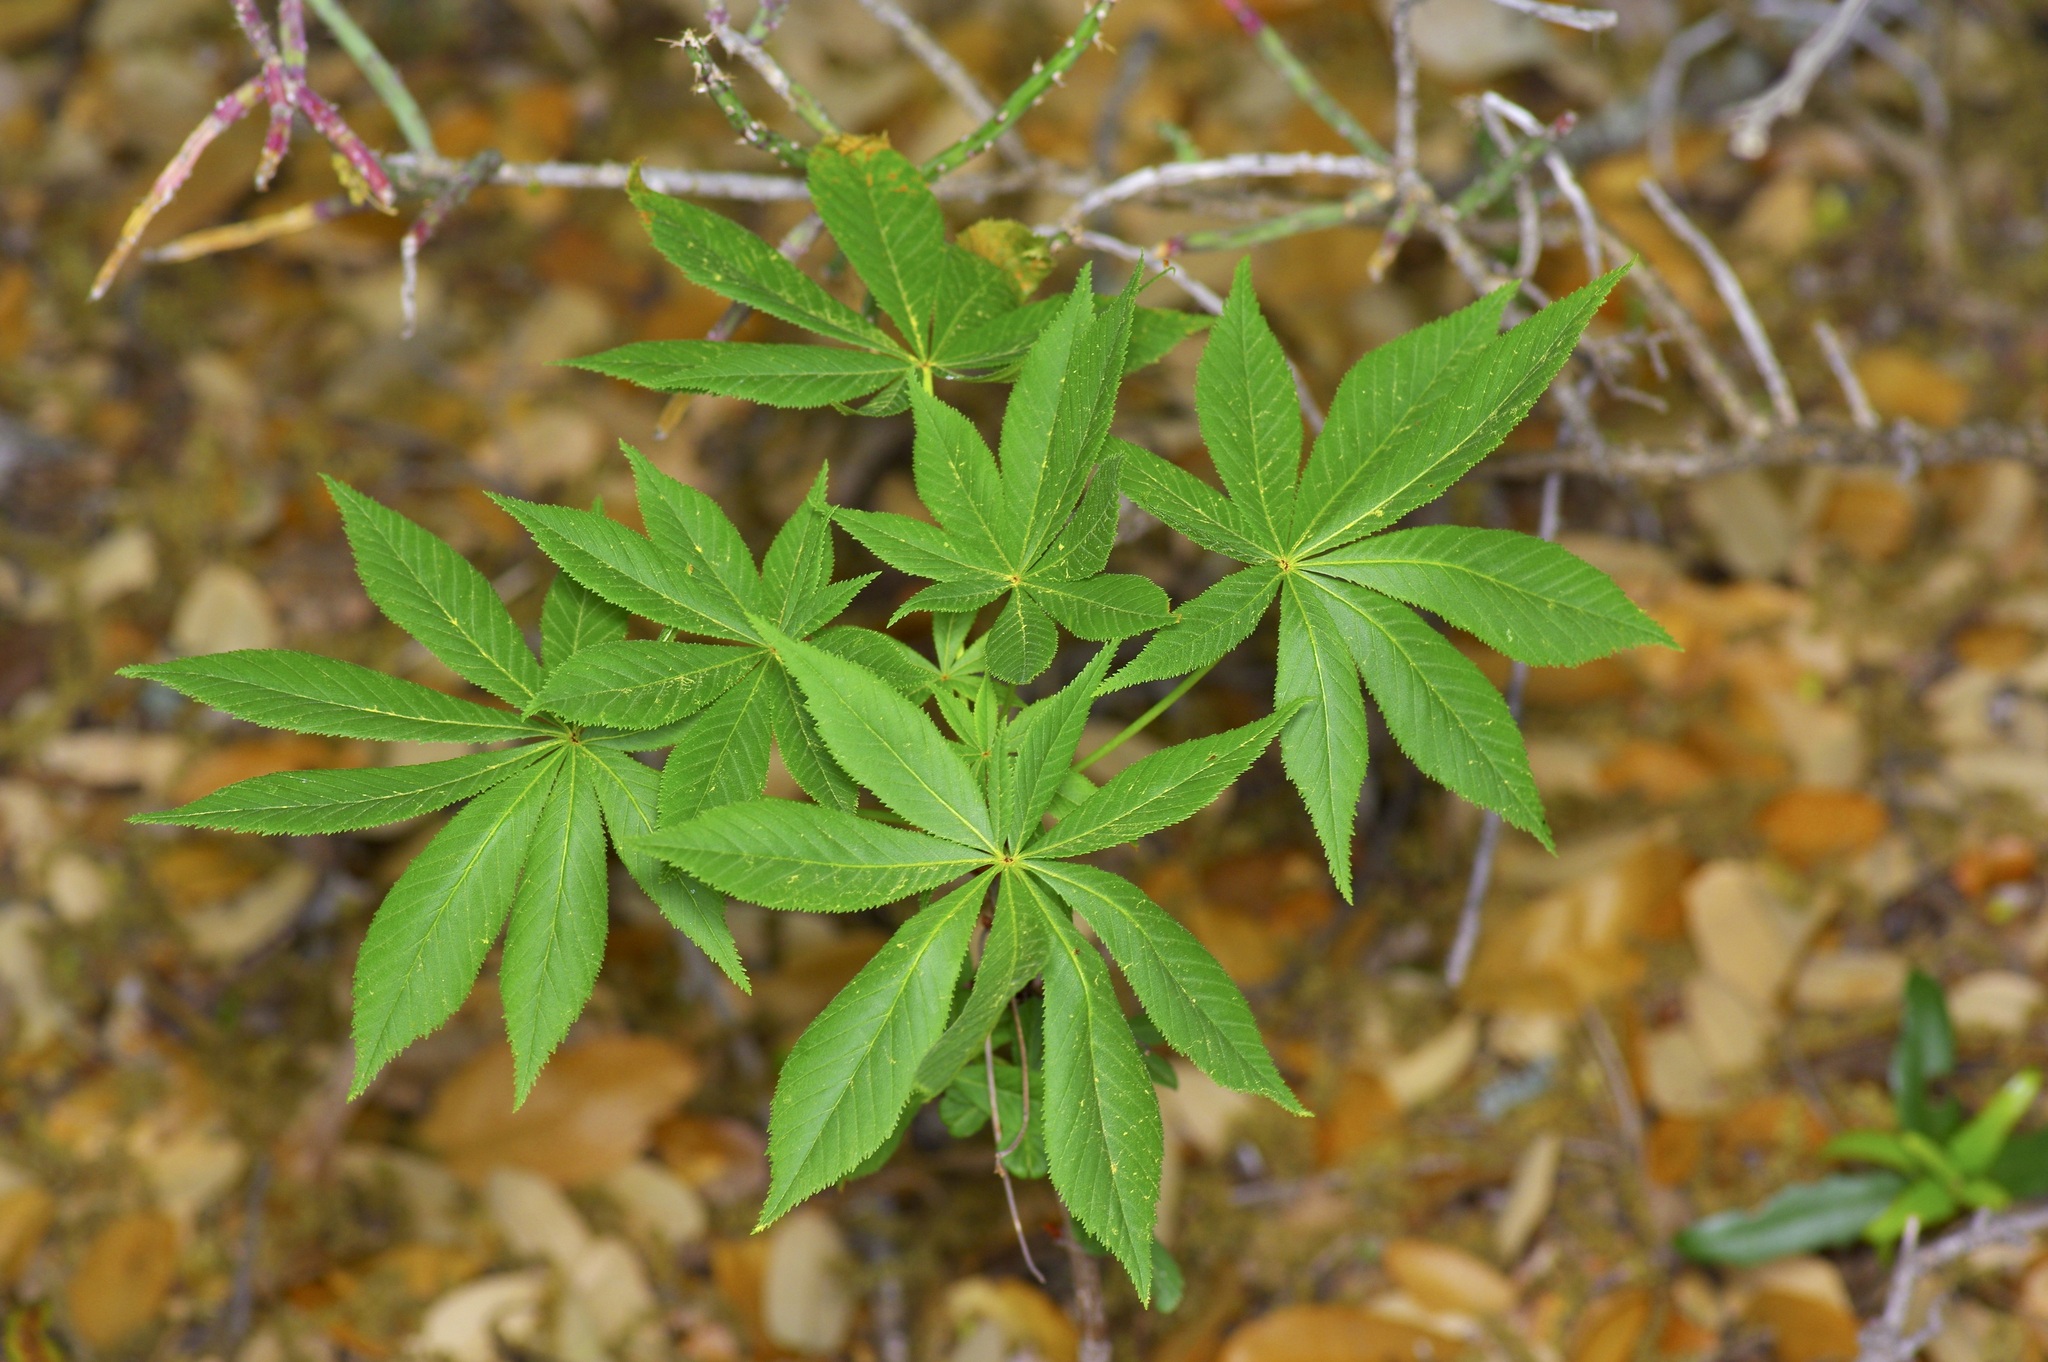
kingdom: Plantae
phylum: Tracheophyta
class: Magnoliopsida
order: Sapindales
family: Sapindaceae
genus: Aesculus
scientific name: Aesculus glabra
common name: Ohio buckeye
